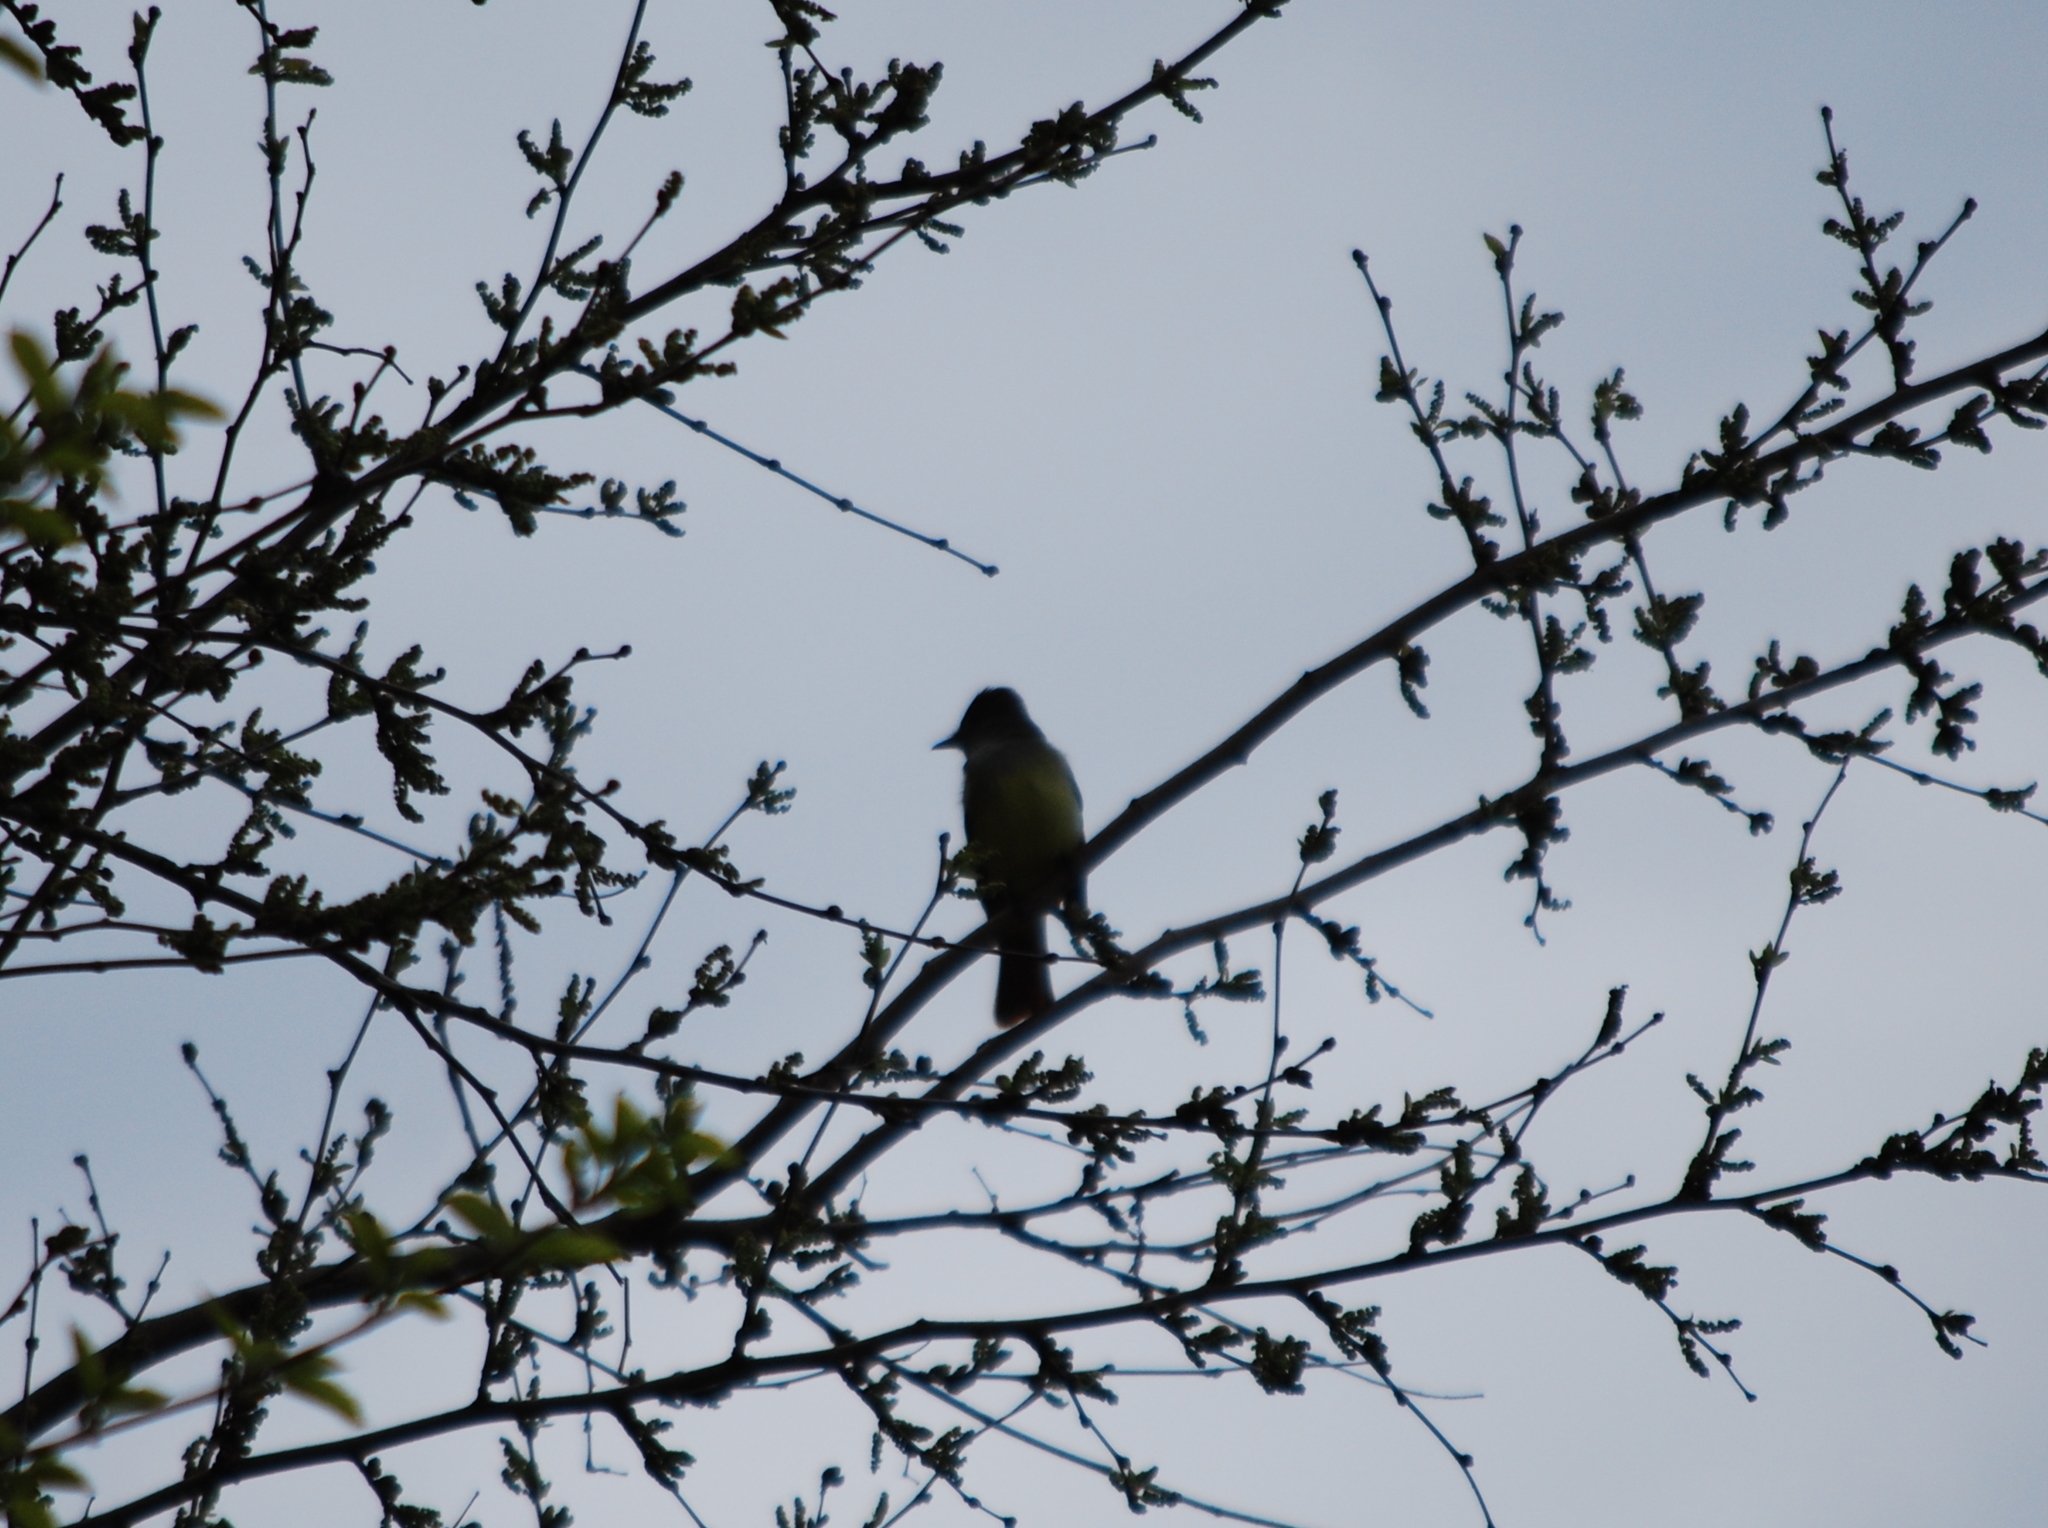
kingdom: Animalia
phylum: Chordata
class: Aves
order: Passeriformes
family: Tyrannidae
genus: Myiarchus
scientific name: Myiarchus crinitus
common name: Great crested flycatcher
